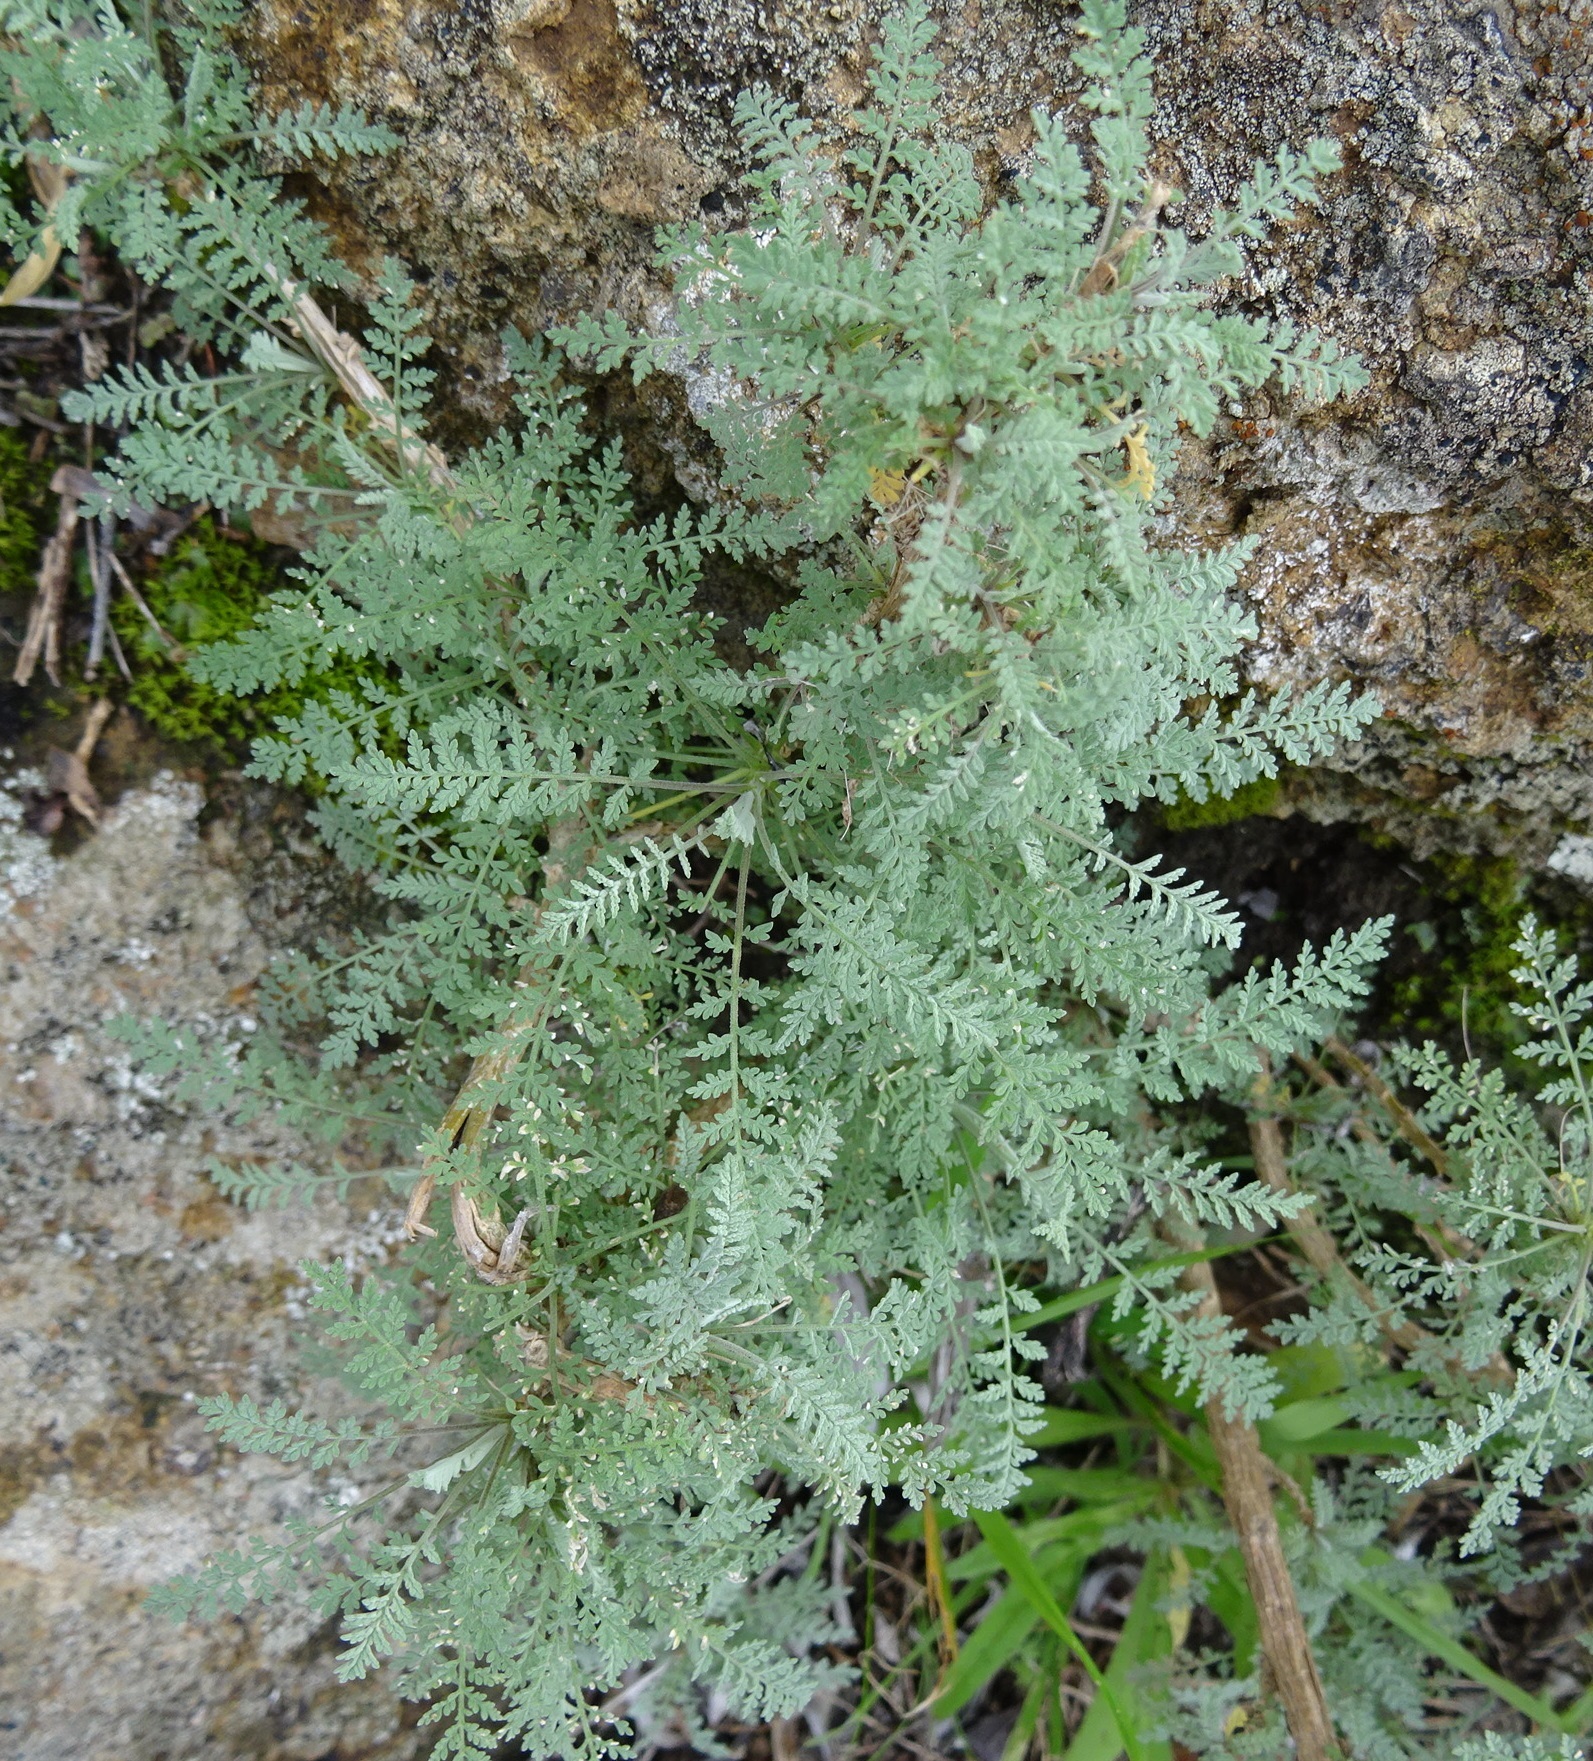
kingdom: Plantae
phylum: Tracheophyta
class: Magnoliopsida
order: Brassicales
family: Brassicaceae
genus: Descurainia
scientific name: Descurainia millefolia
